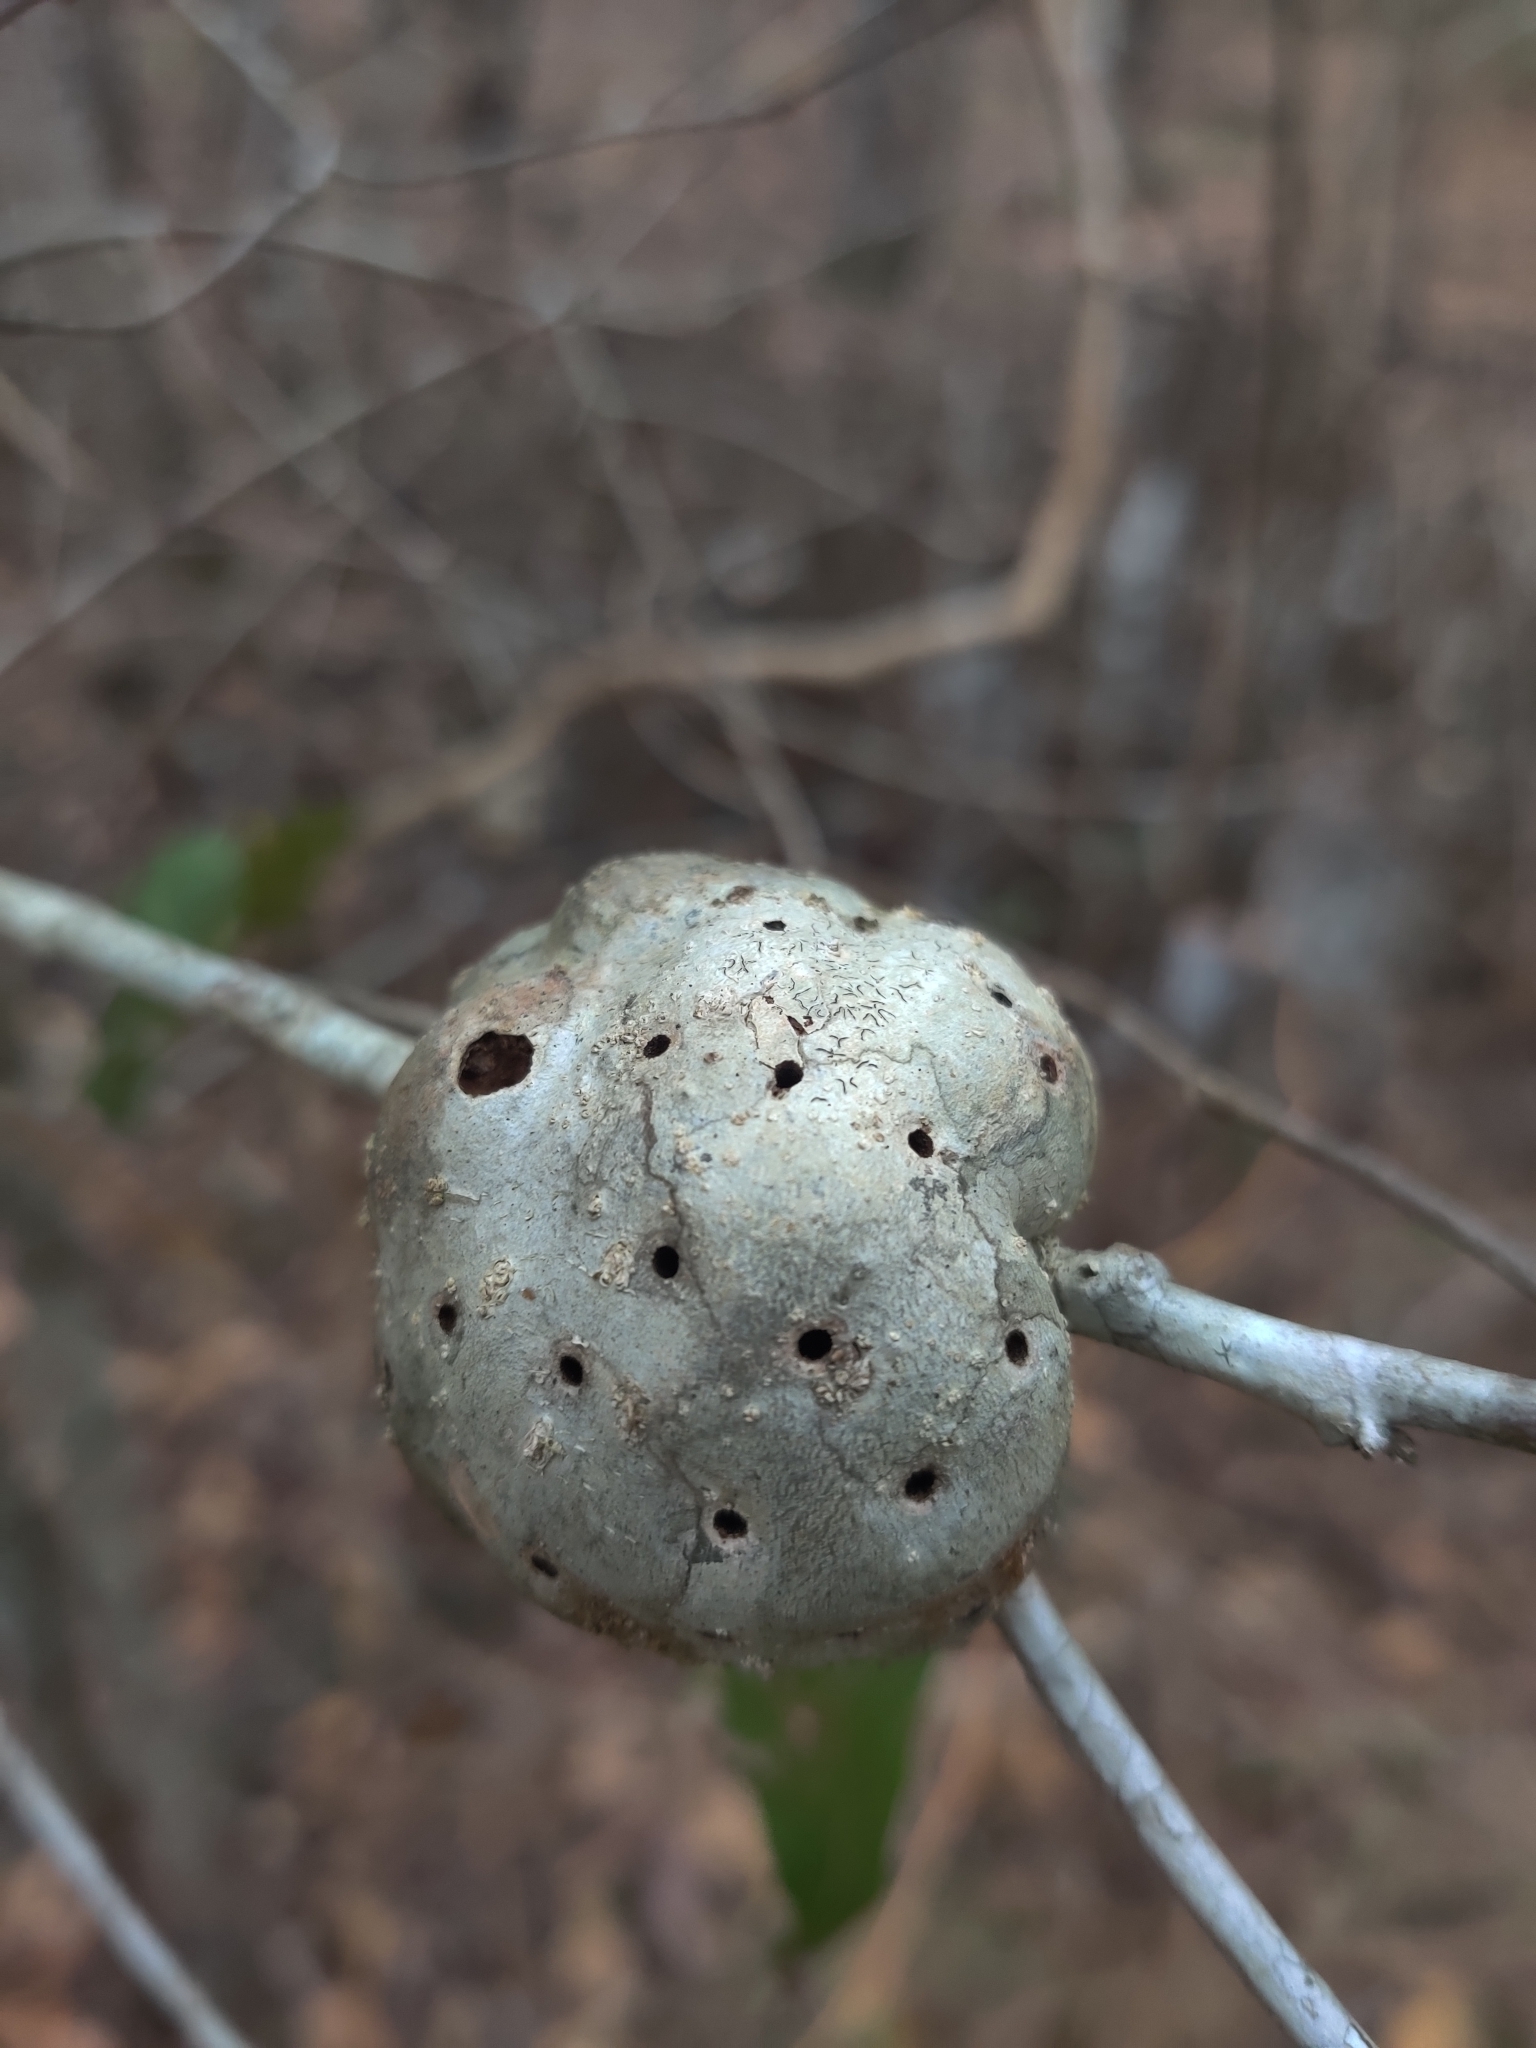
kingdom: Animalia
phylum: Arthropoda
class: Insecta
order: Hymenoptera
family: Cynipidae
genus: Callirhytis
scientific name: Callirhytis
